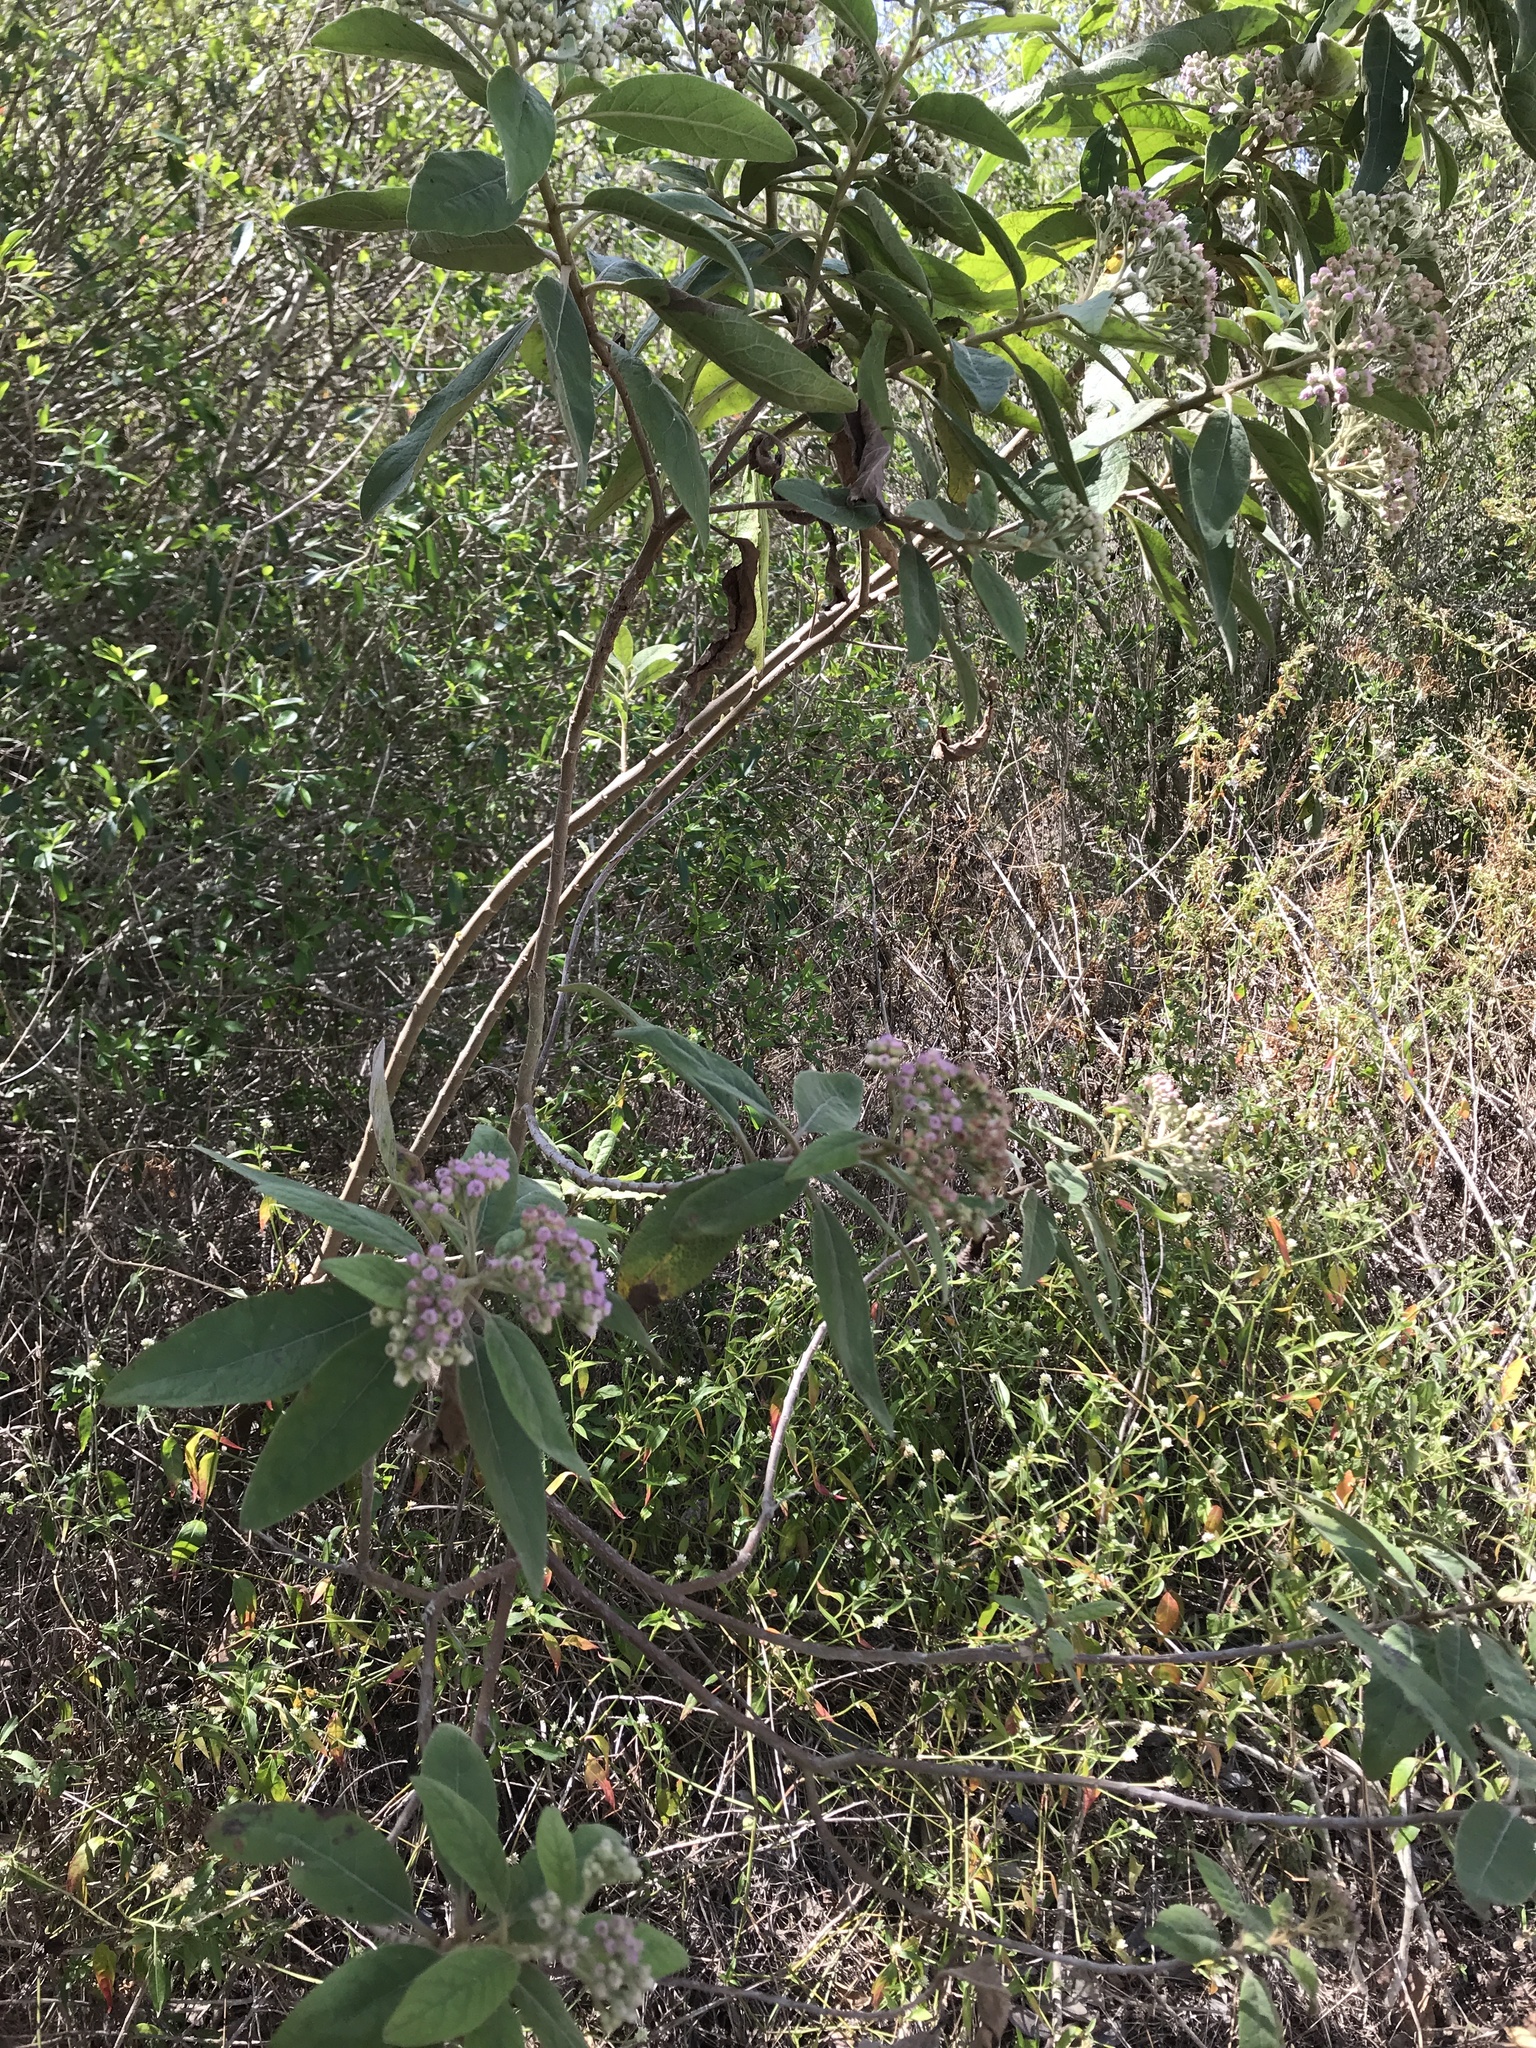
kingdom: Plantae
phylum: Tracheophyta
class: Magnoliopsida
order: Asterales
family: Asteraceae
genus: Pluchea
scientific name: Pluchea carolinensis
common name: Marsh fleabane
